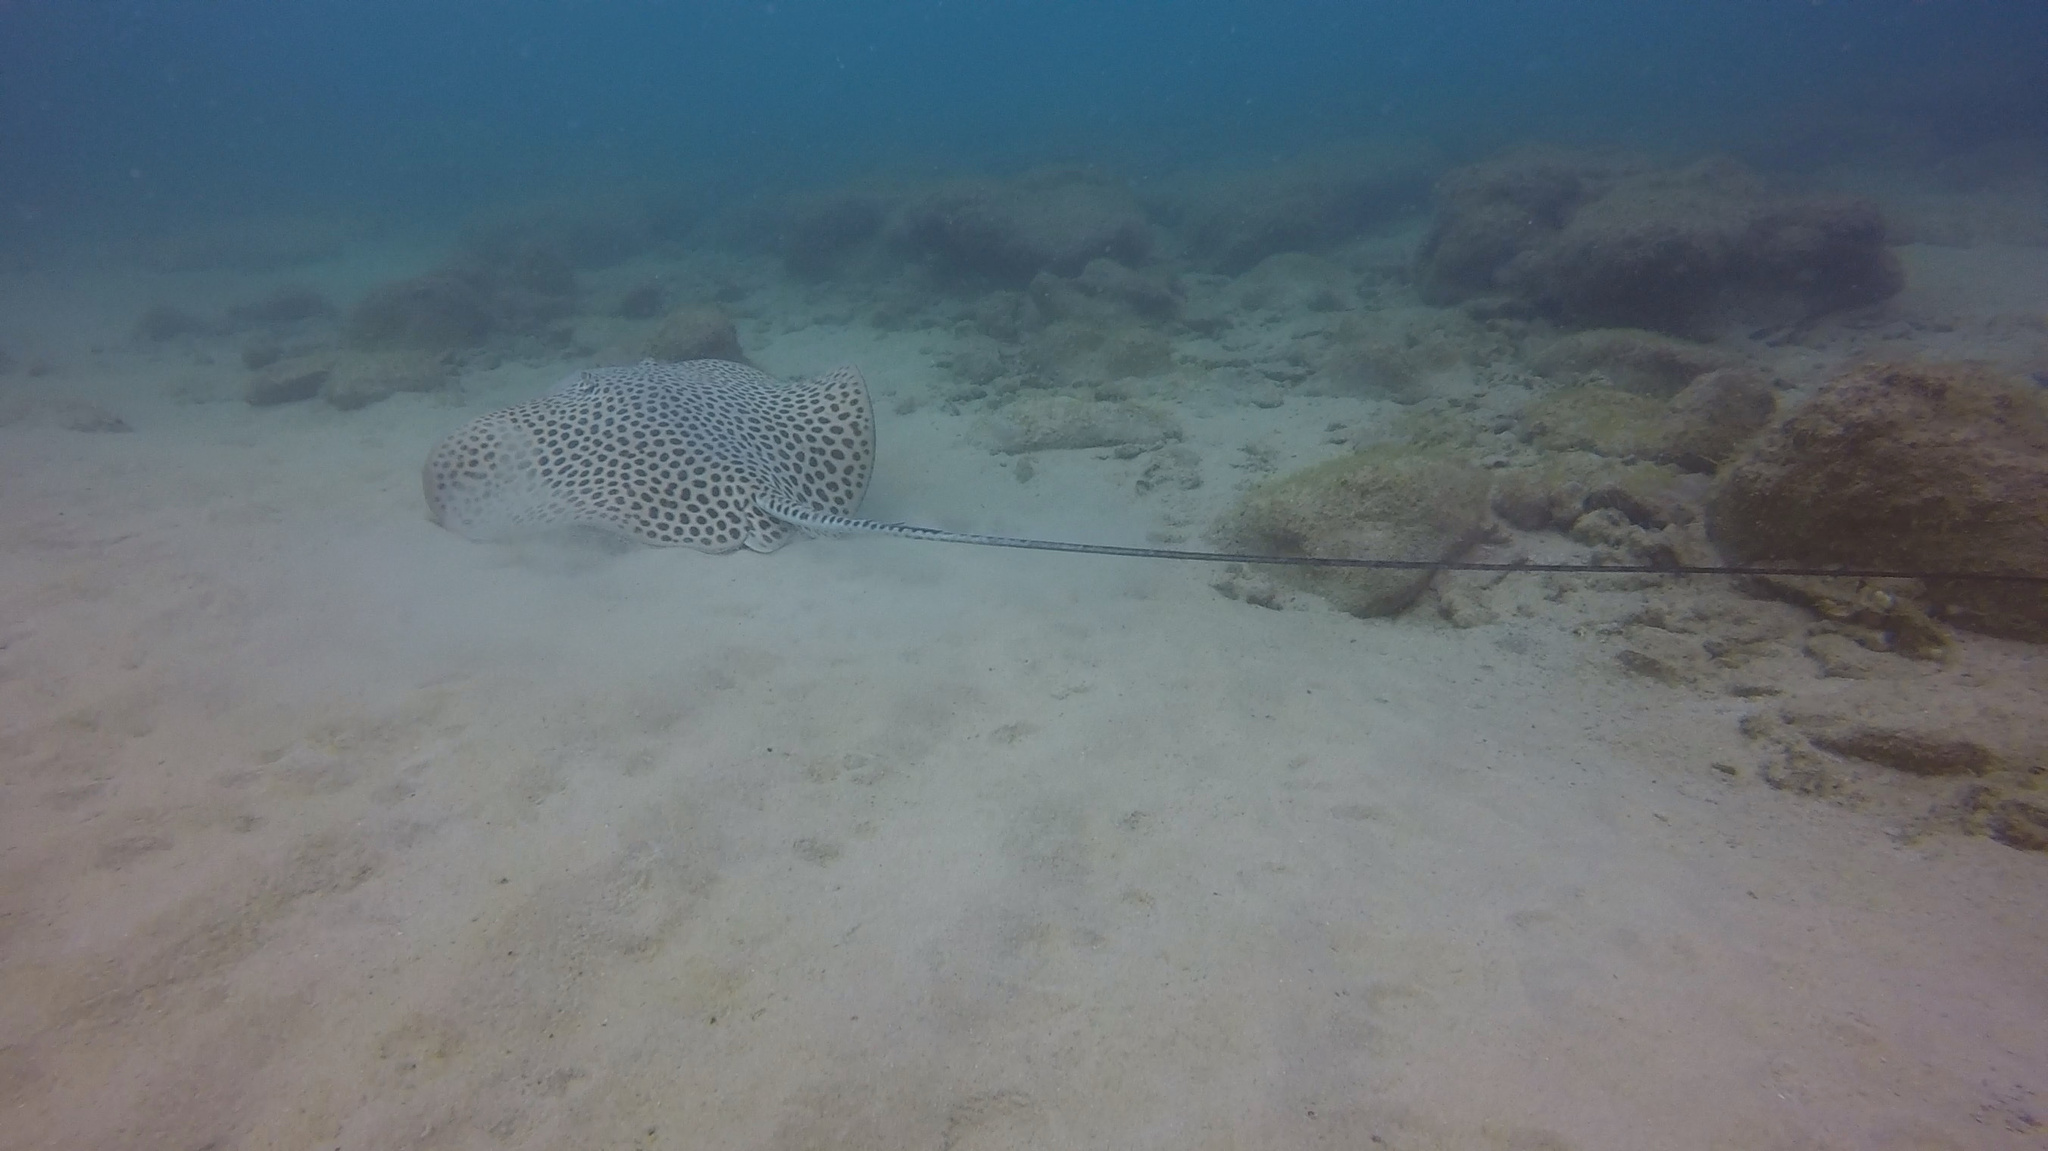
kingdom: Animalia
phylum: Chordata
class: Elasmobranchii
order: Myliobatiformes
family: Dasyatidae
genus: Himantura
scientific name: Himantura uarnak
